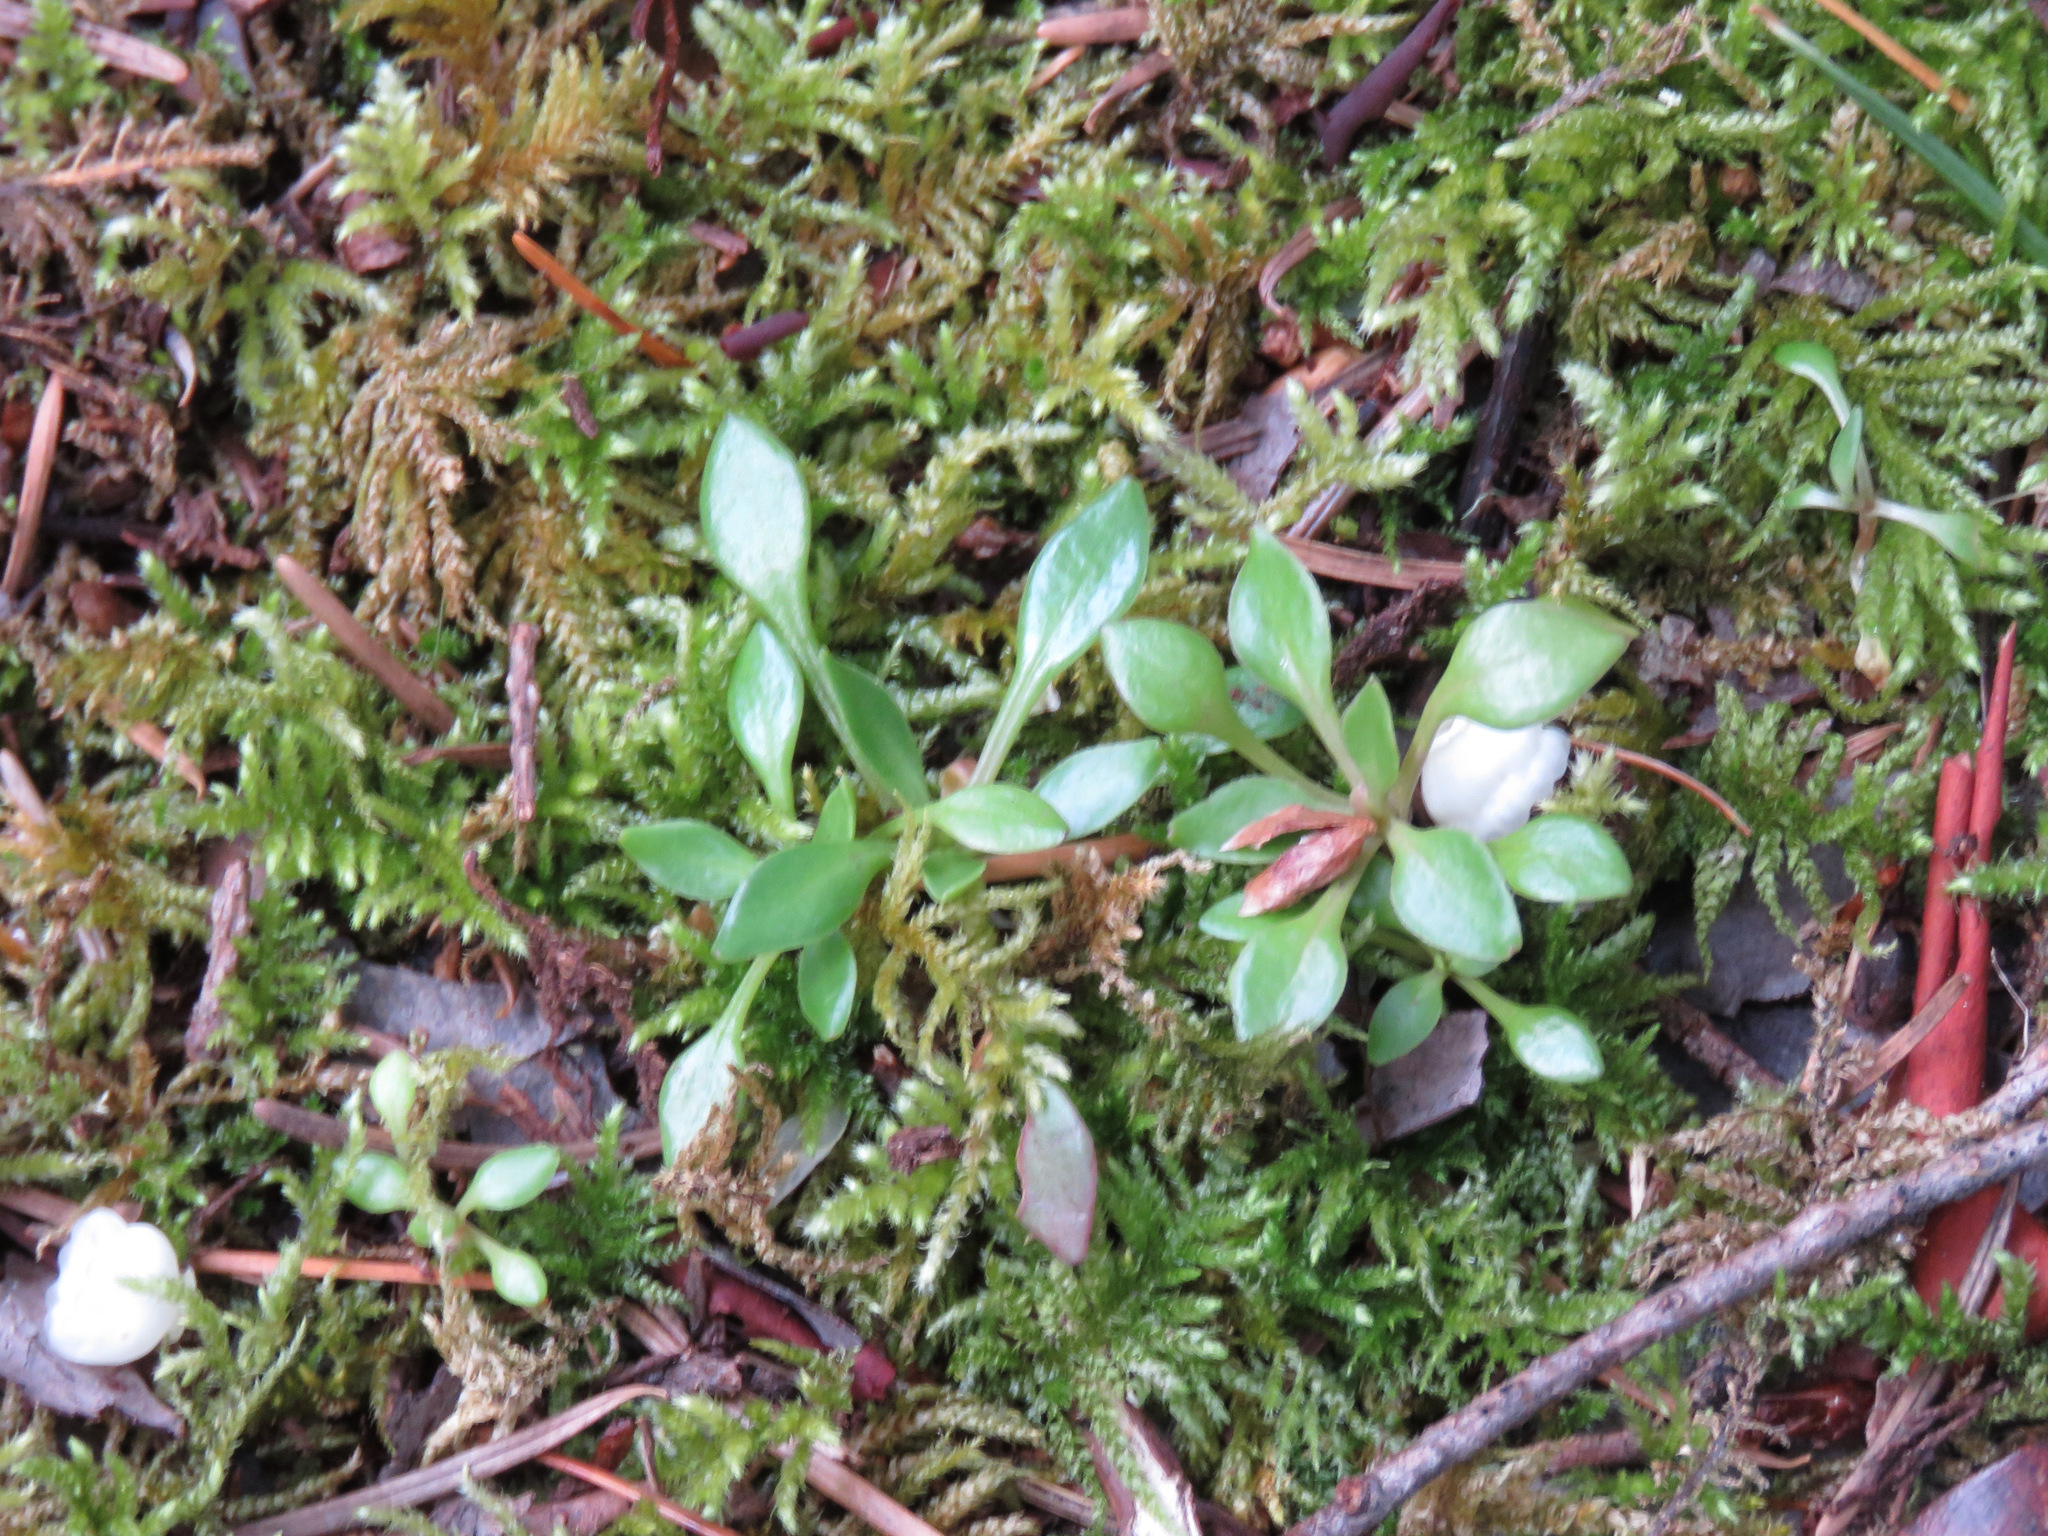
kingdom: Plantae
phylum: Tracheophyta
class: Magnoliopsida
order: Caryophyllales
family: Montiaceae
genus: Montia
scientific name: Montia parvifolia
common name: Small-leaved blinks
